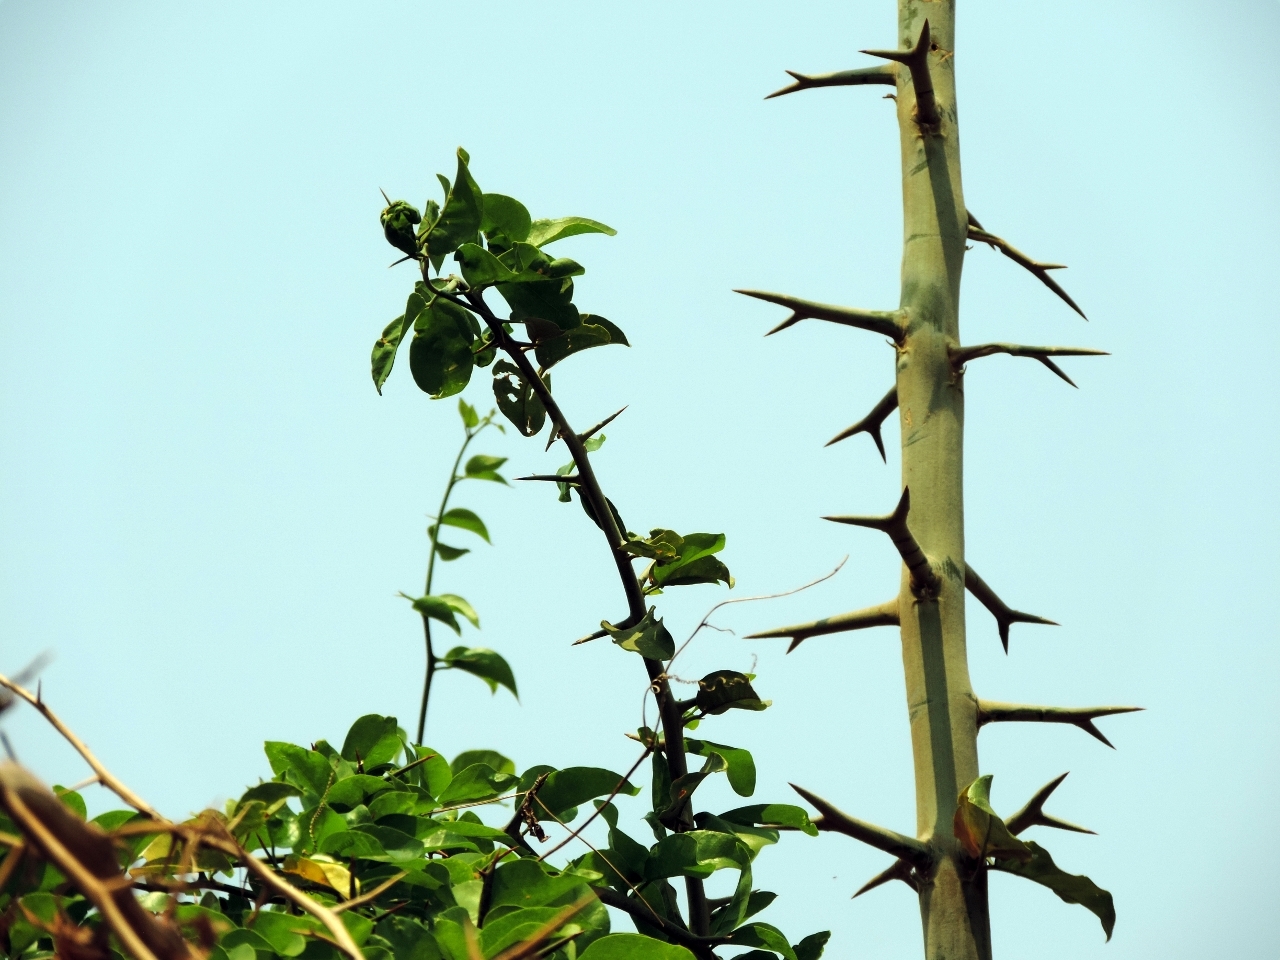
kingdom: Plantae
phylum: Tracheophyta
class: Magnoliopsida
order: Zygophyllales
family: Zygophyllaceae
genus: Balanites
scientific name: Balanites maughamii
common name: Torchwood
